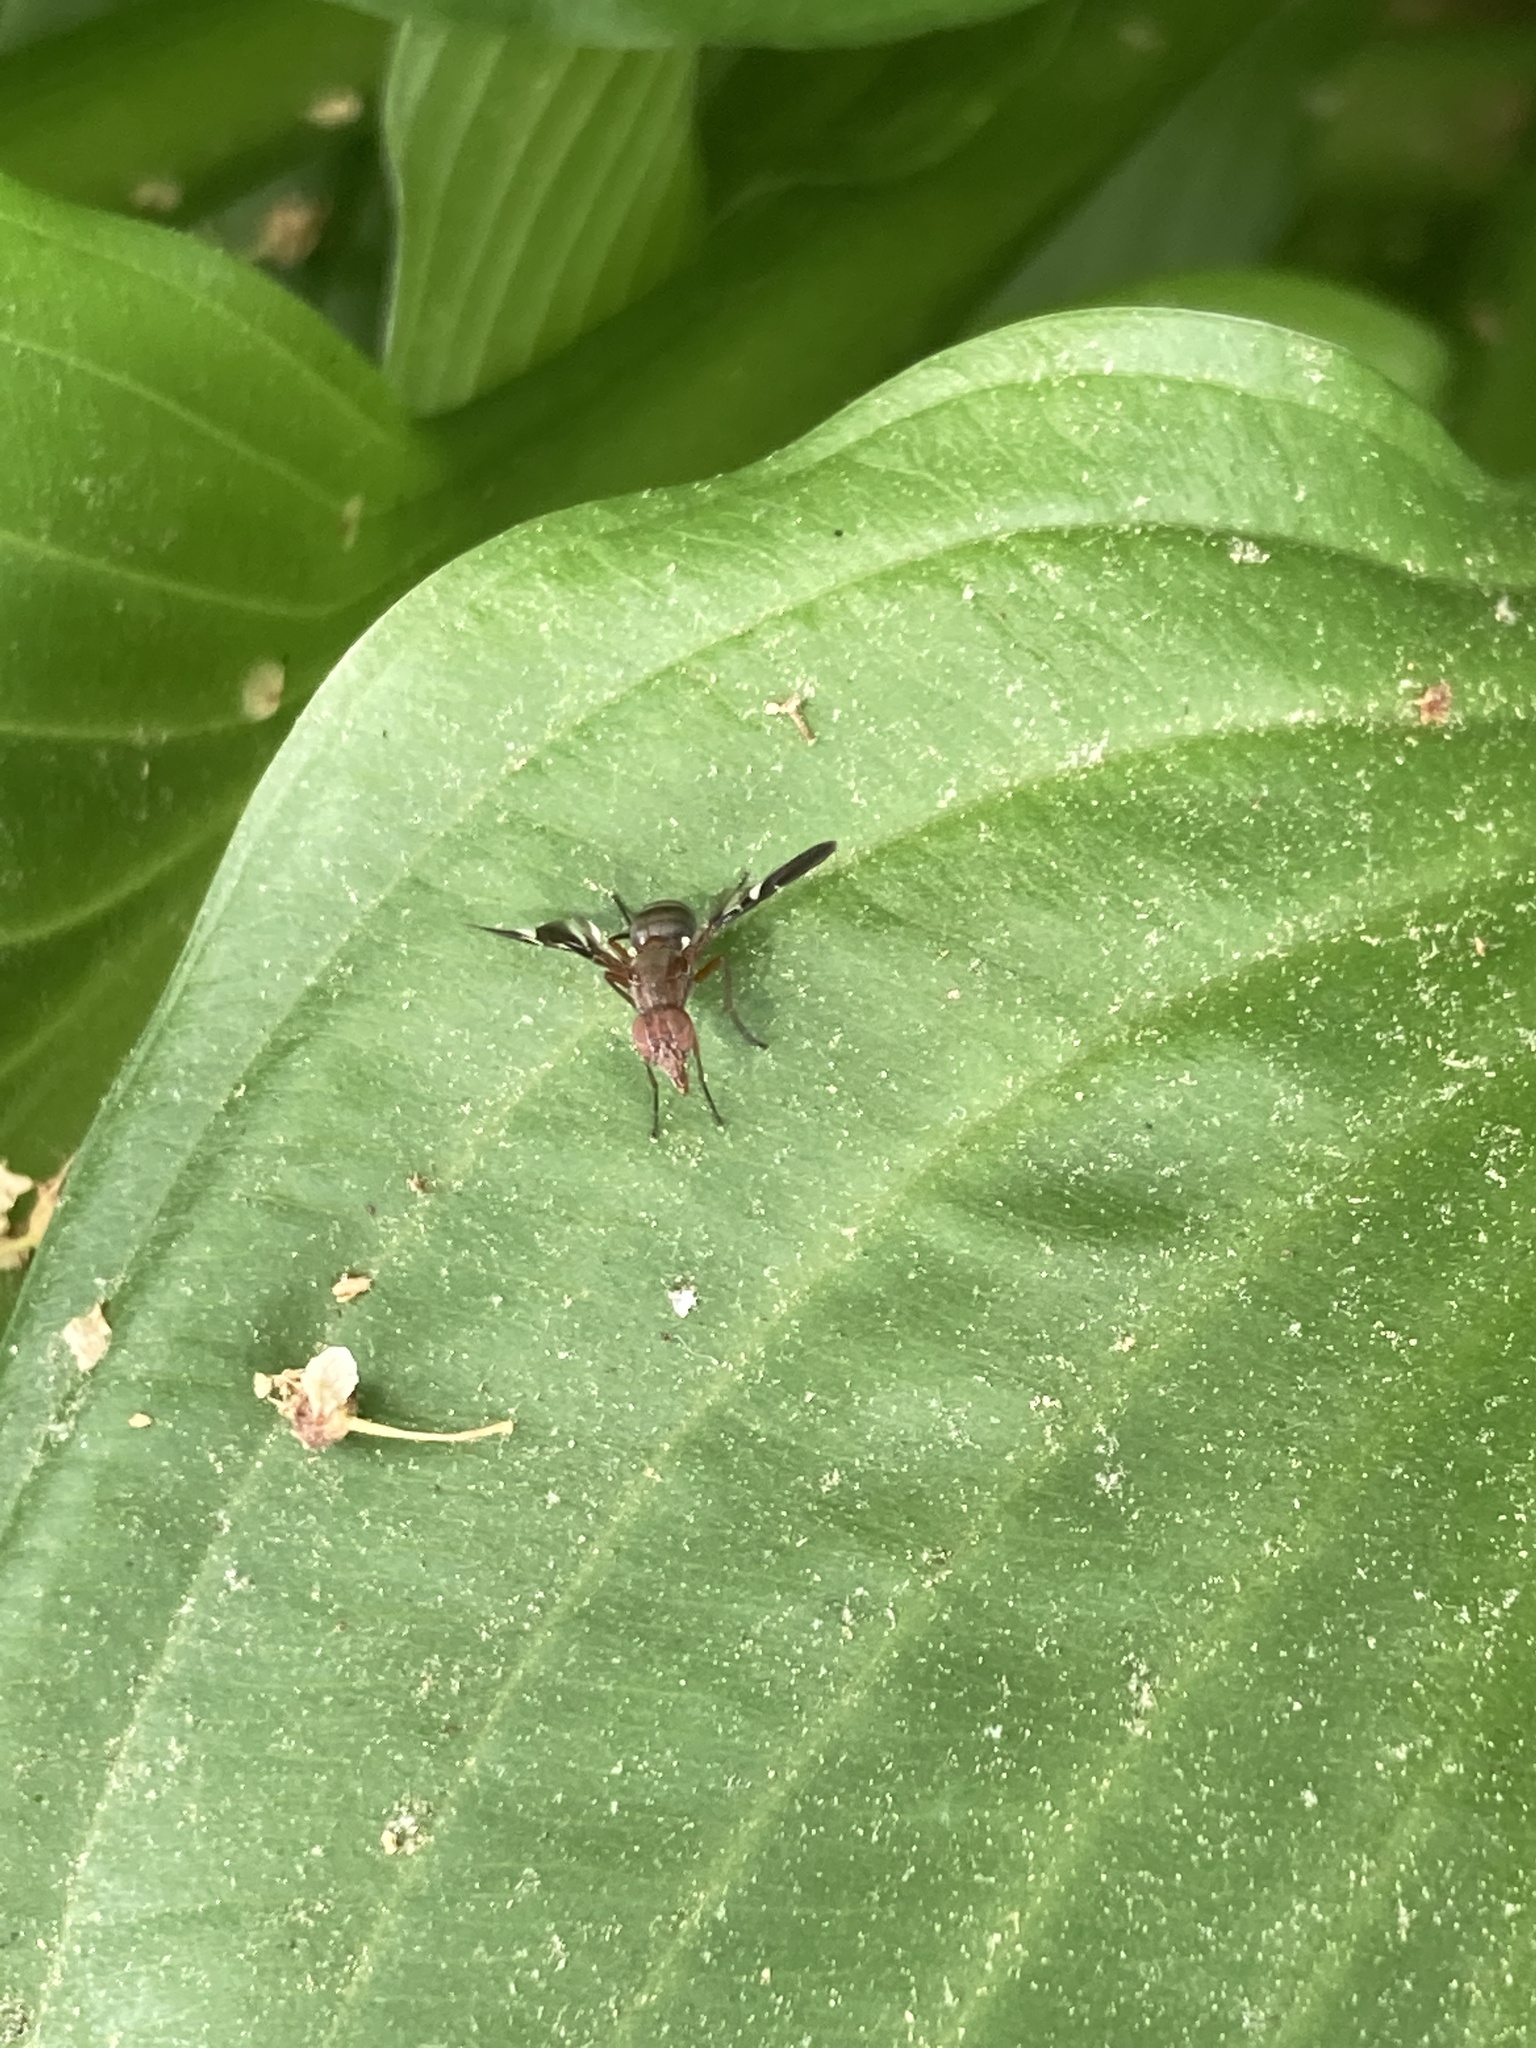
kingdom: Animalia
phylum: Arthropoda
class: Insecta
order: Diptera
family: Ulidiidae
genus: Delphinia
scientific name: Delphinia picta
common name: Common picture-winged fly
